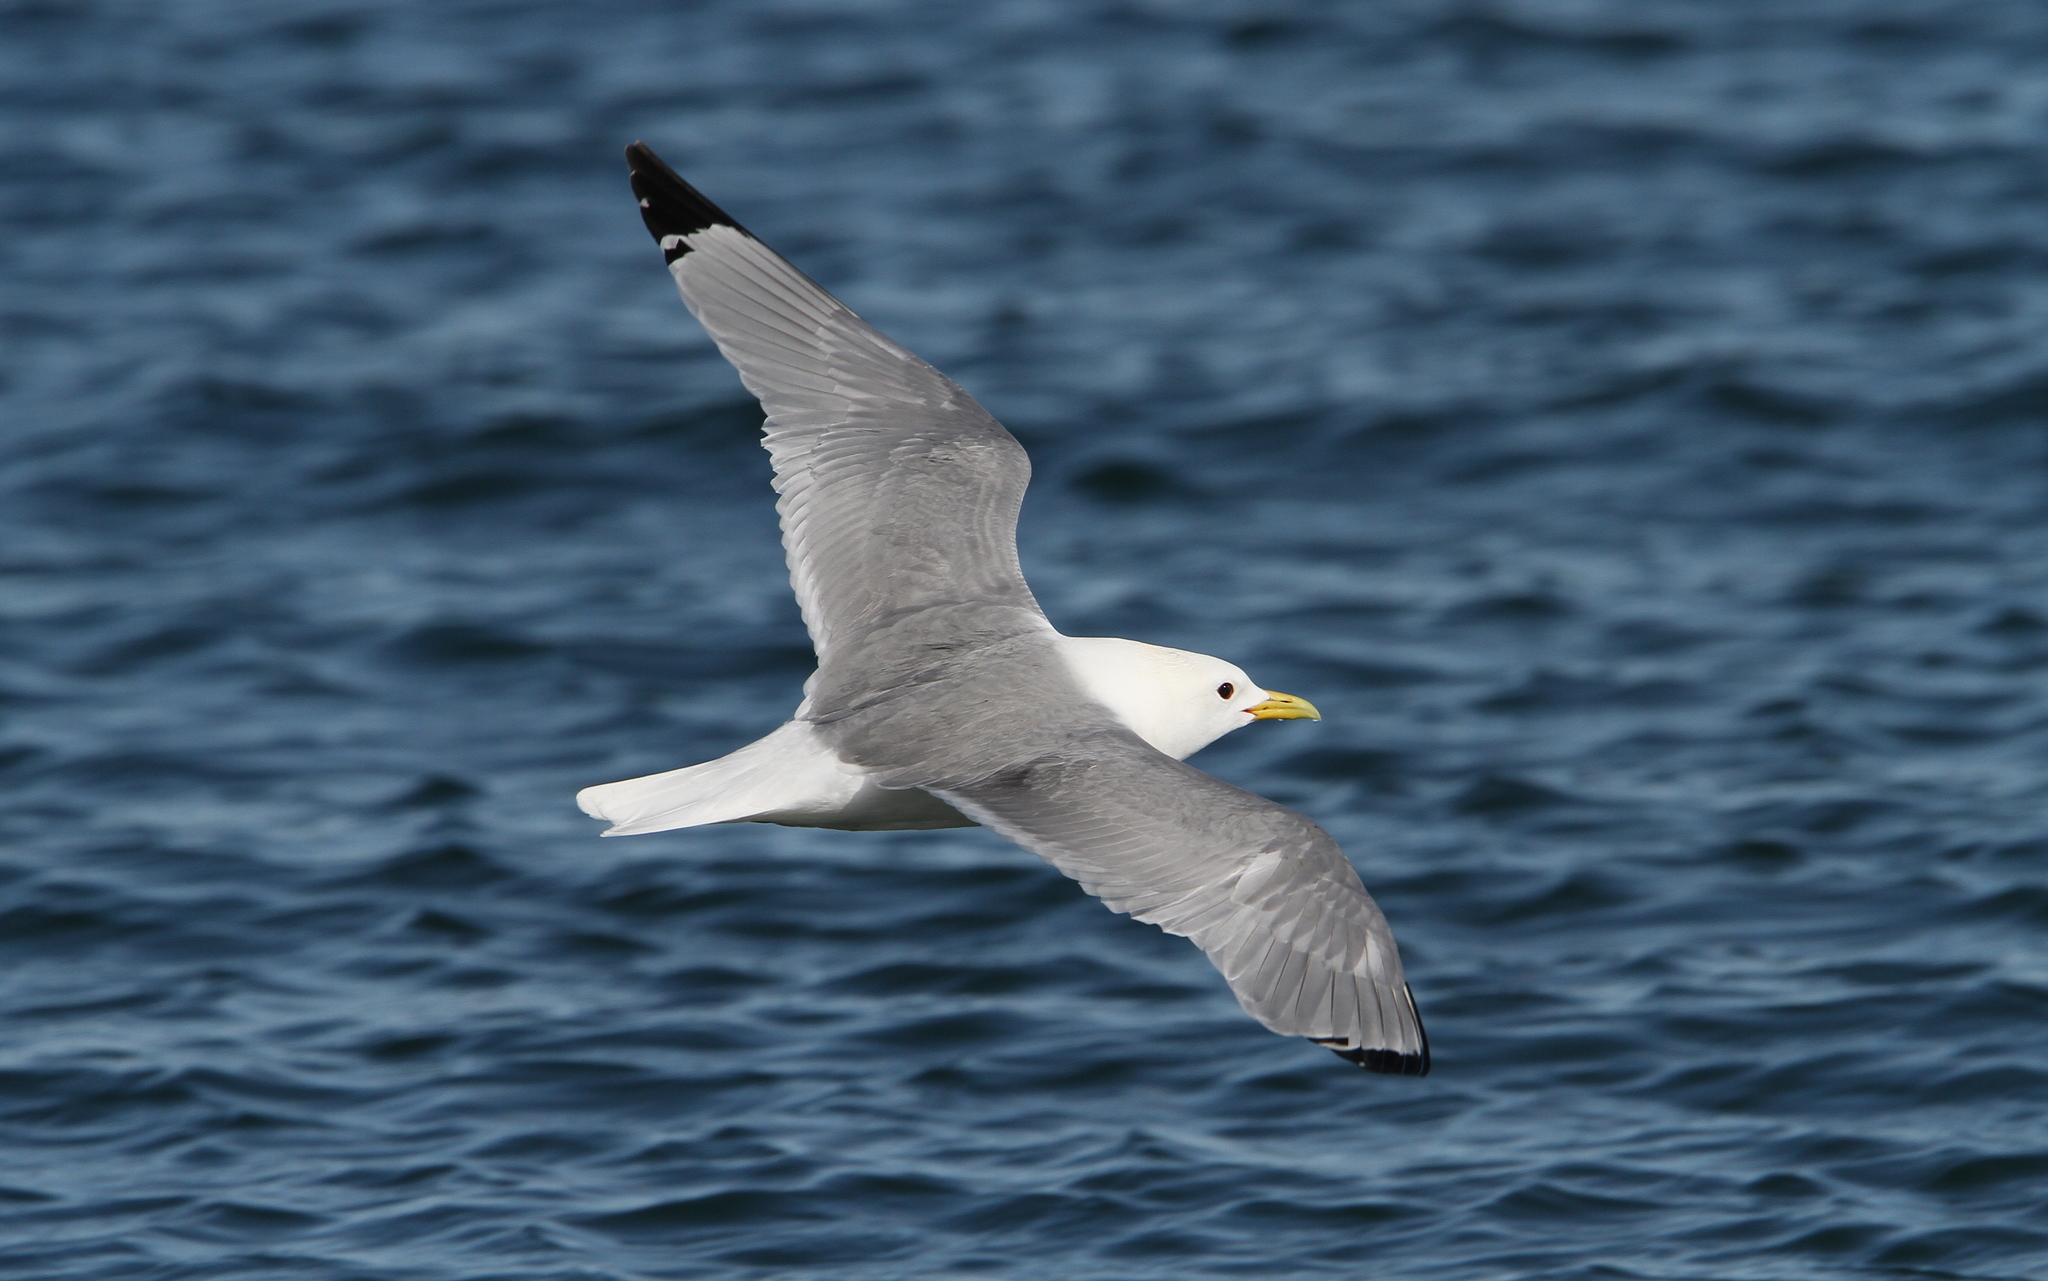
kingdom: Animalia
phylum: Chordata
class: Aves
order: Charadriiformes
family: Laridae
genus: Rissa
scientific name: Rissa tridactyla
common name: Black-legged kittiwake
